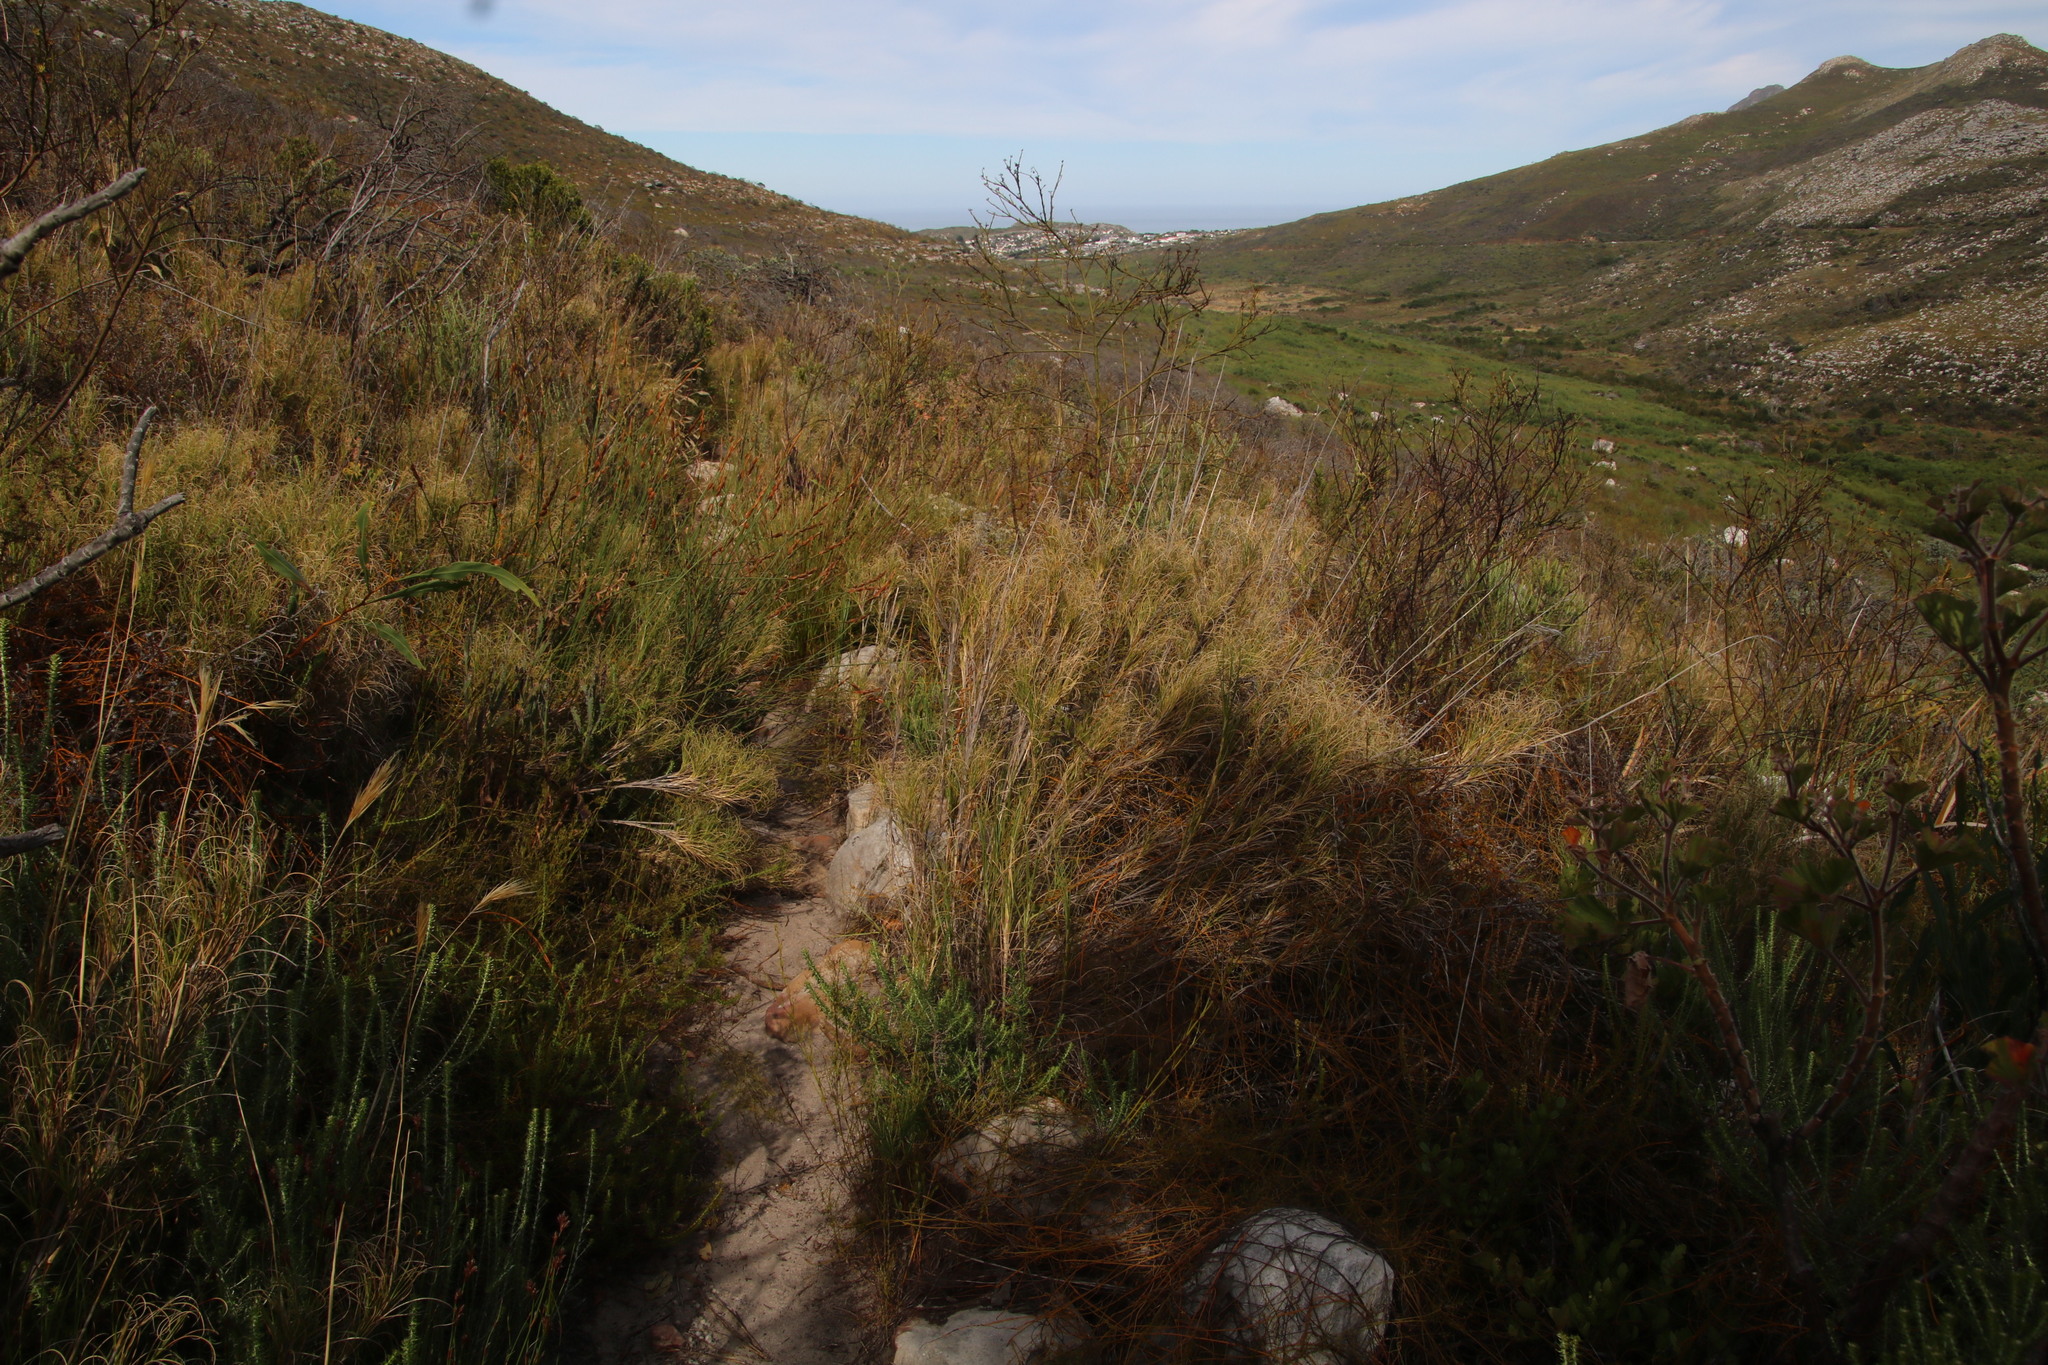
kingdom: Plantae
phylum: Tracheophyta
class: Liliopsida
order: Poales
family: Poaceae
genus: Pseudopentameris
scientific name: Pseudopentameris macrantha
